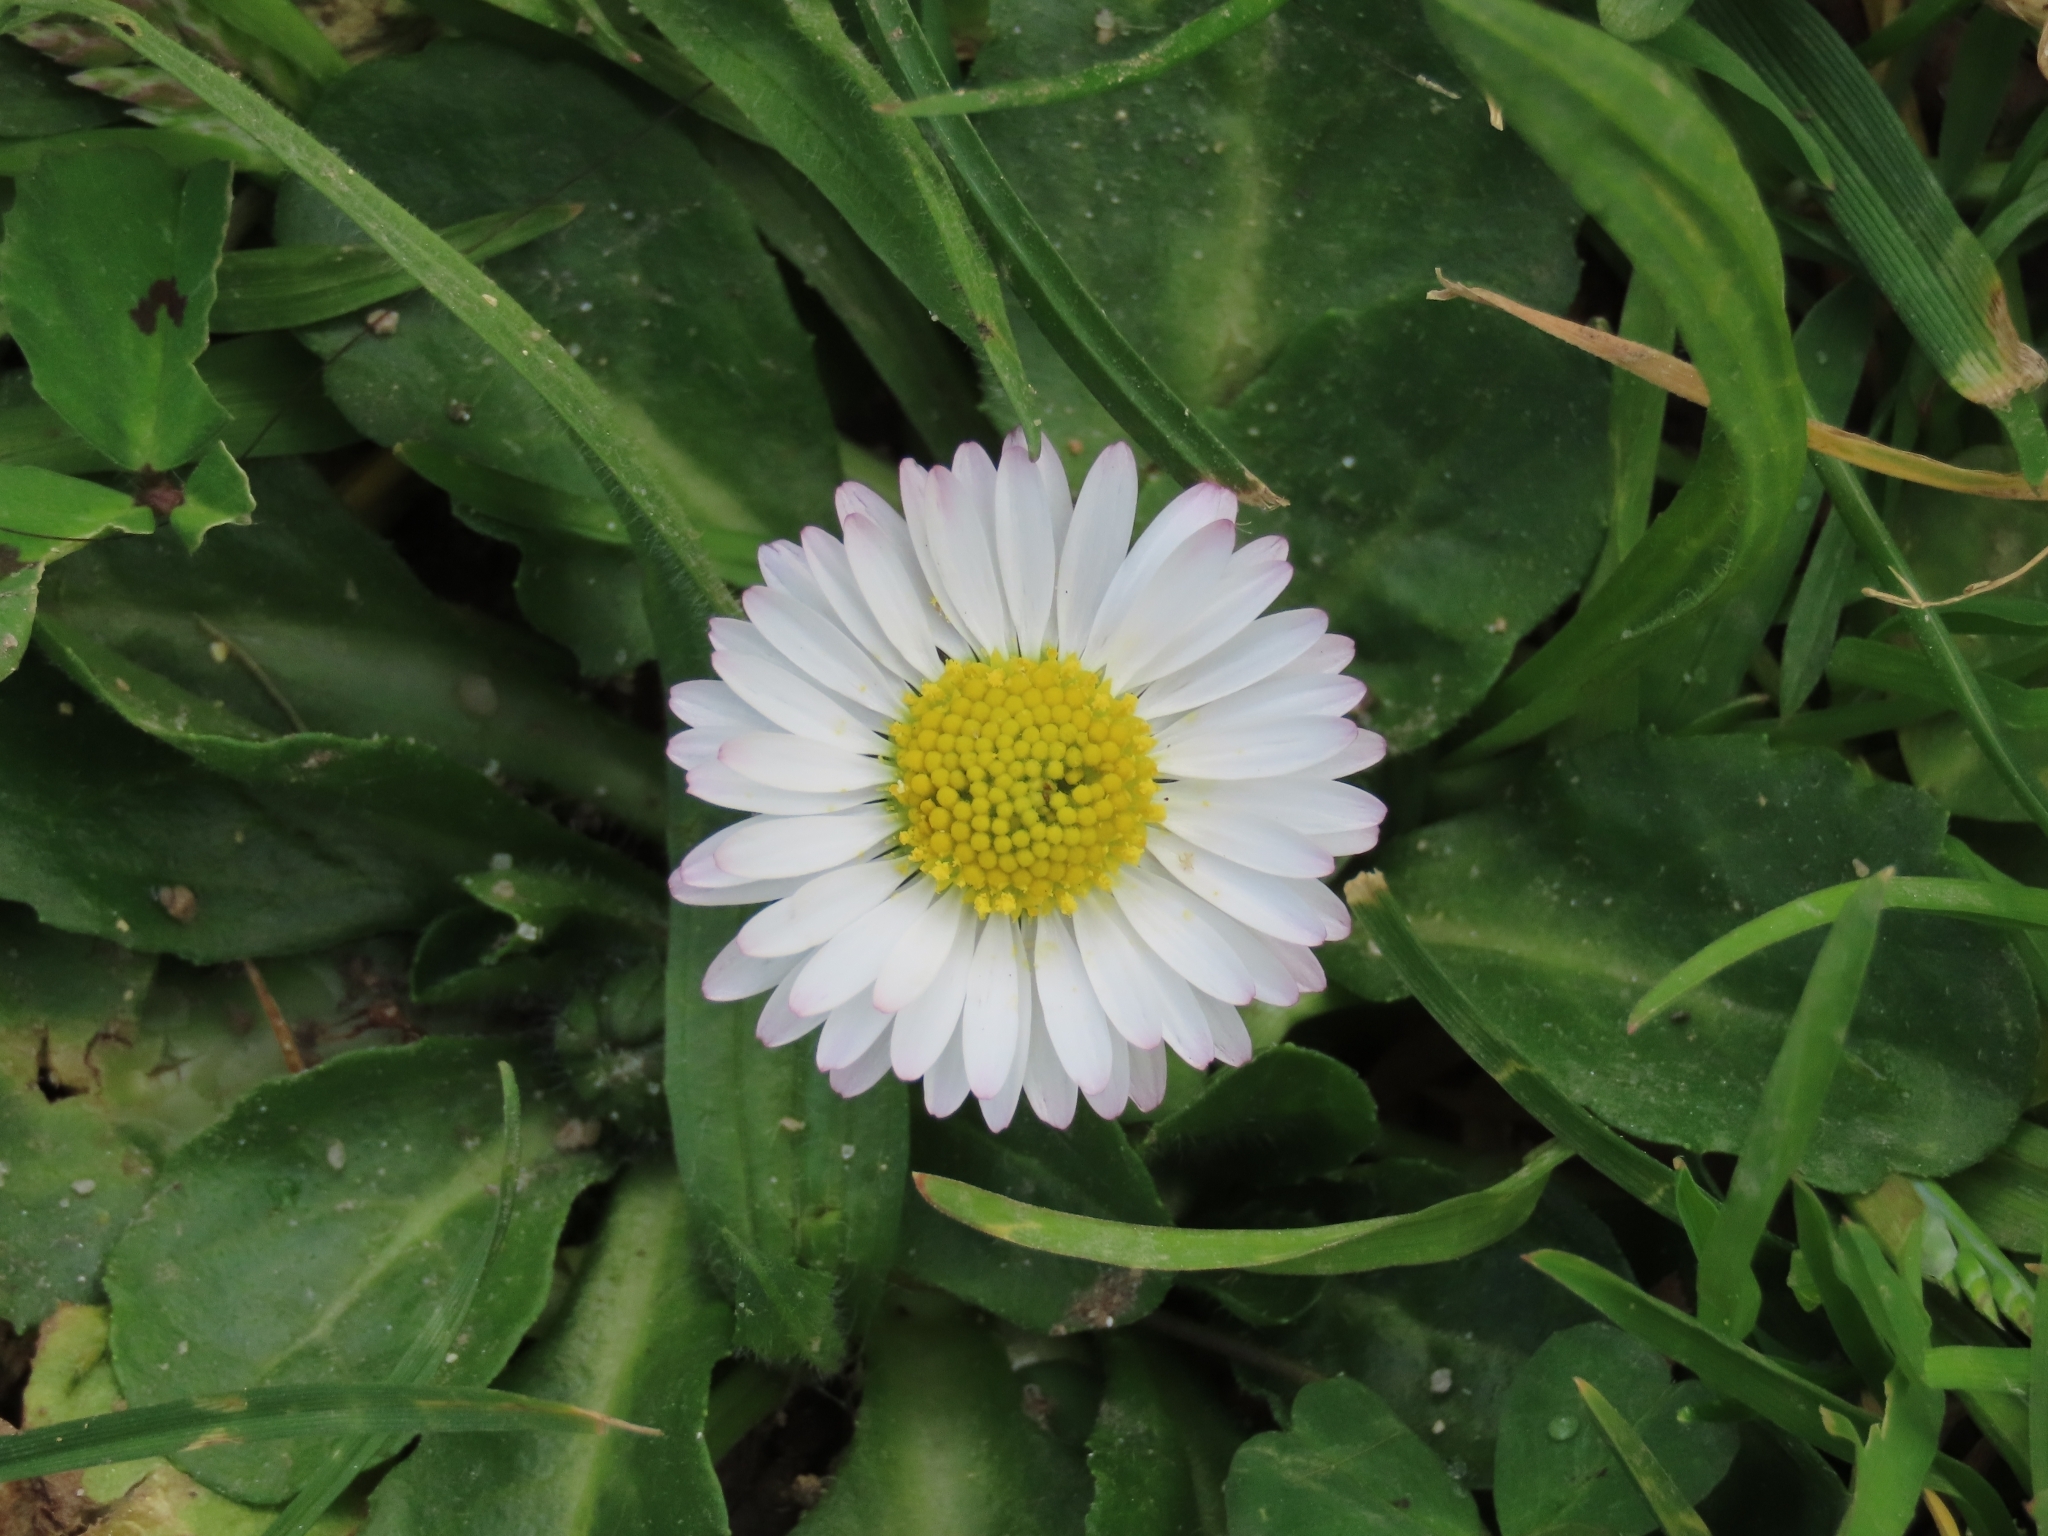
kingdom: Plantae
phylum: Tracheophyta
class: Magnoliopsida
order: Asterales
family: Asteraceae
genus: Bellis
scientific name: Bellis perennis
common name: Lawndaisy
